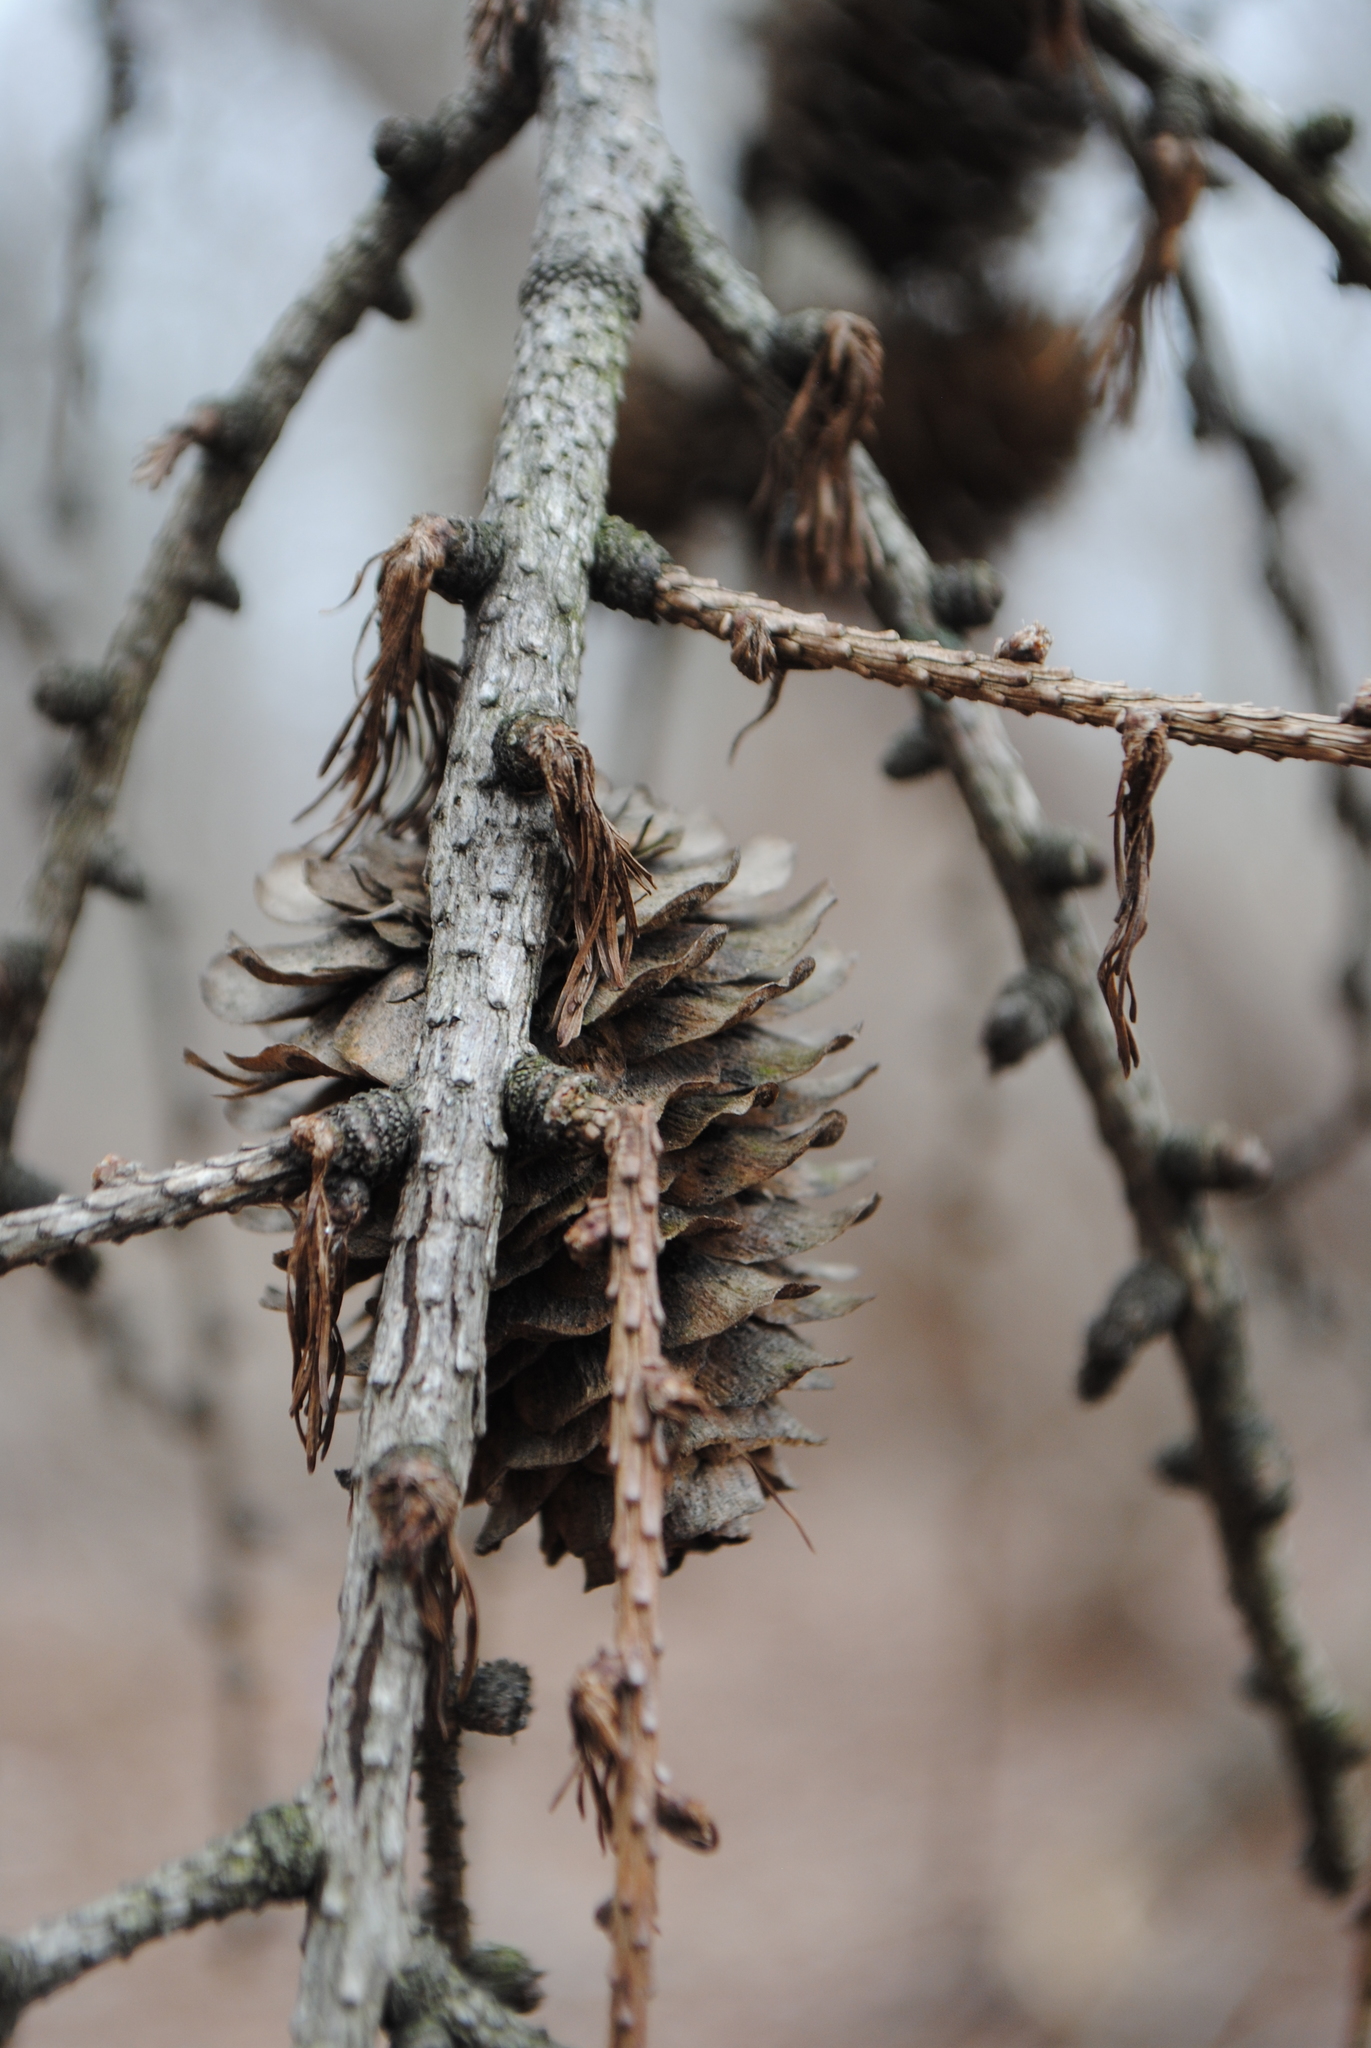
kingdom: Plantae
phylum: Tracheophyta
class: Pinopsida
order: Pinales
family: Pinaceae
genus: Larix
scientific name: Larix kaempferi
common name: Japanese larch
